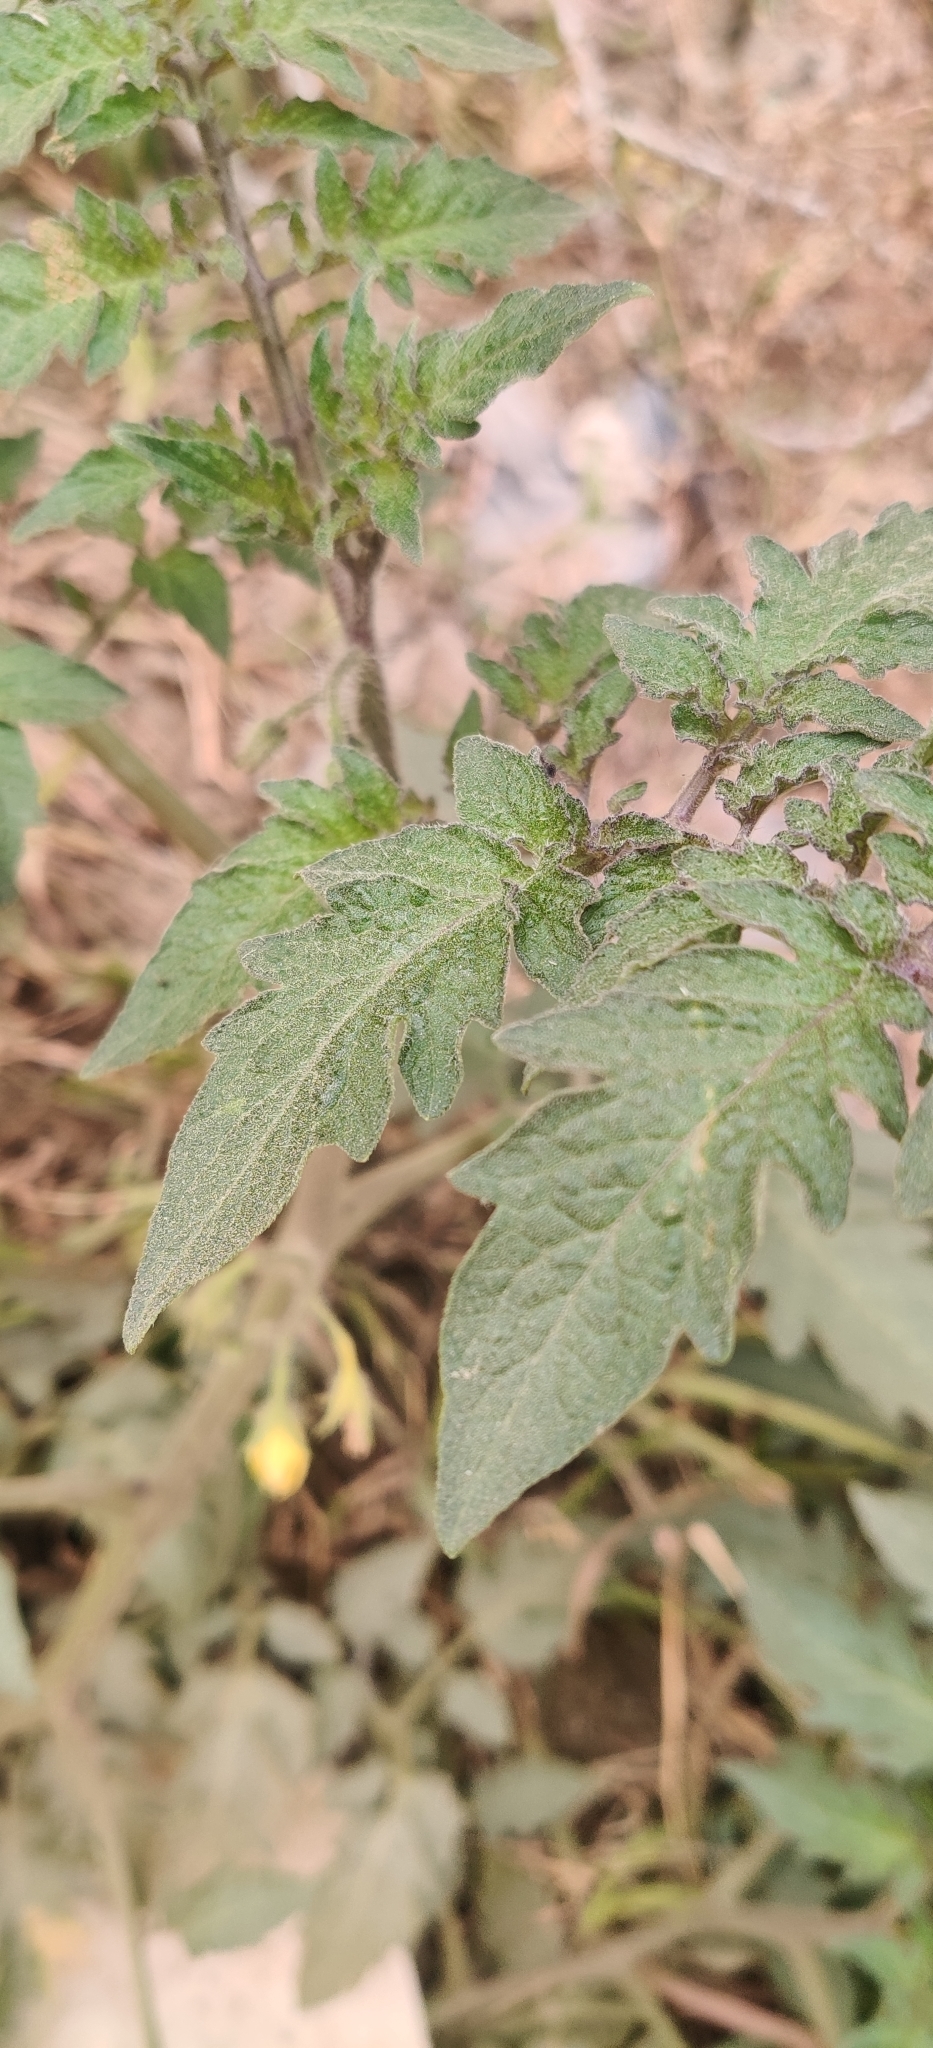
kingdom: Plantae
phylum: Tracheophyta
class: Magnoliopsida
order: Solanales
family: Solanaceae
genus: Solanum
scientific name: Solanum lycopersicum
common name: Garden tomato
